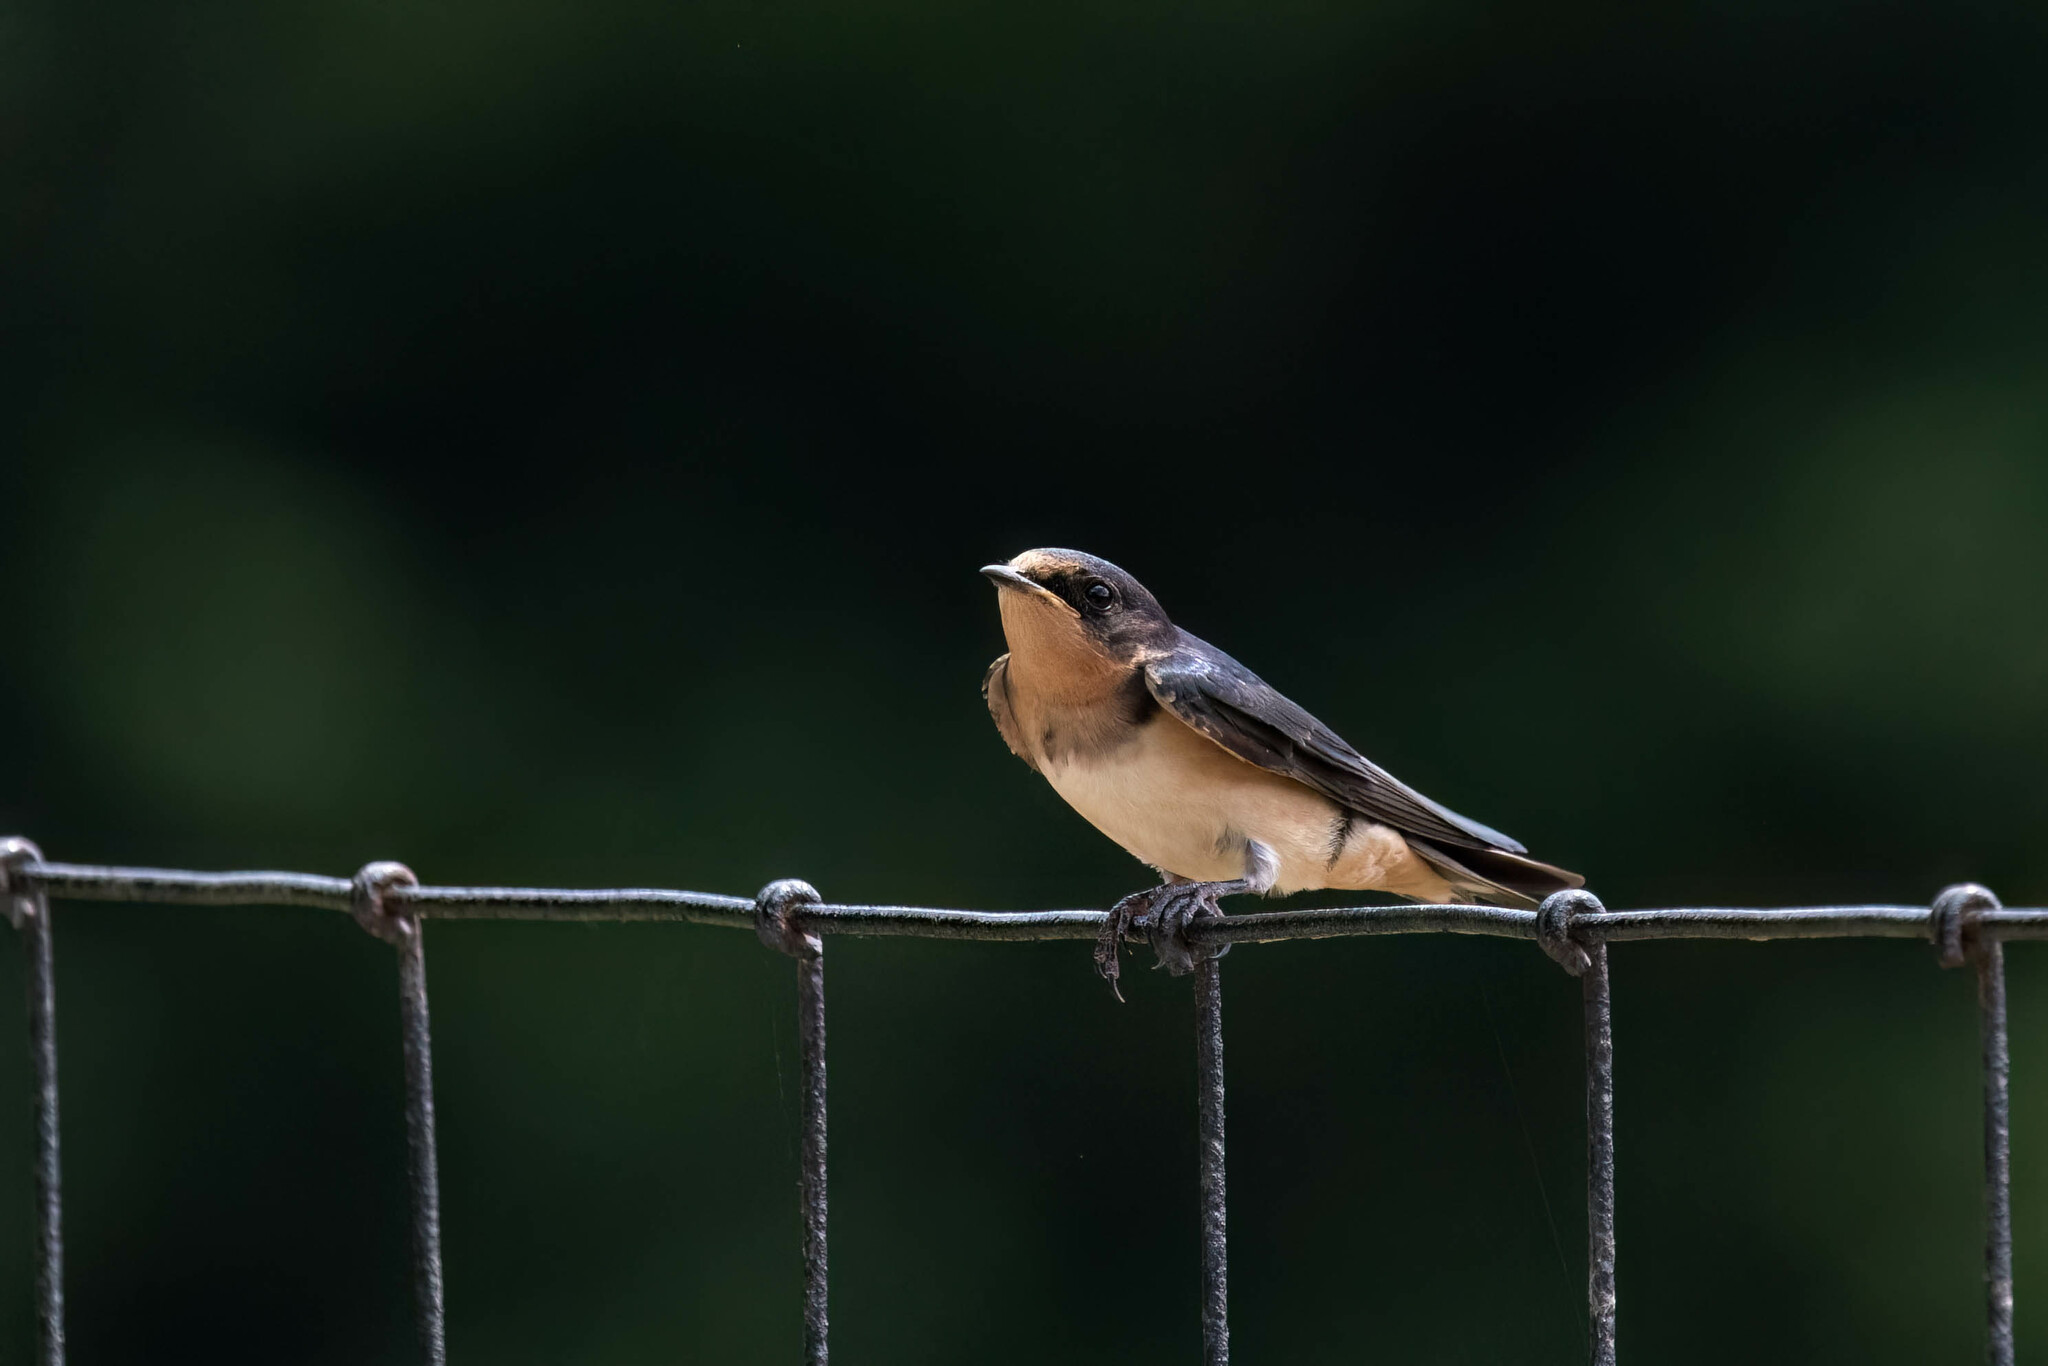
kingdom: Animalia
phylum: Chordata
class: Aves
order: Passeriformes
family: Hirundinidae
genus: Hirundo
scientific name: Hirundo rustica
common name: Barn swallow
